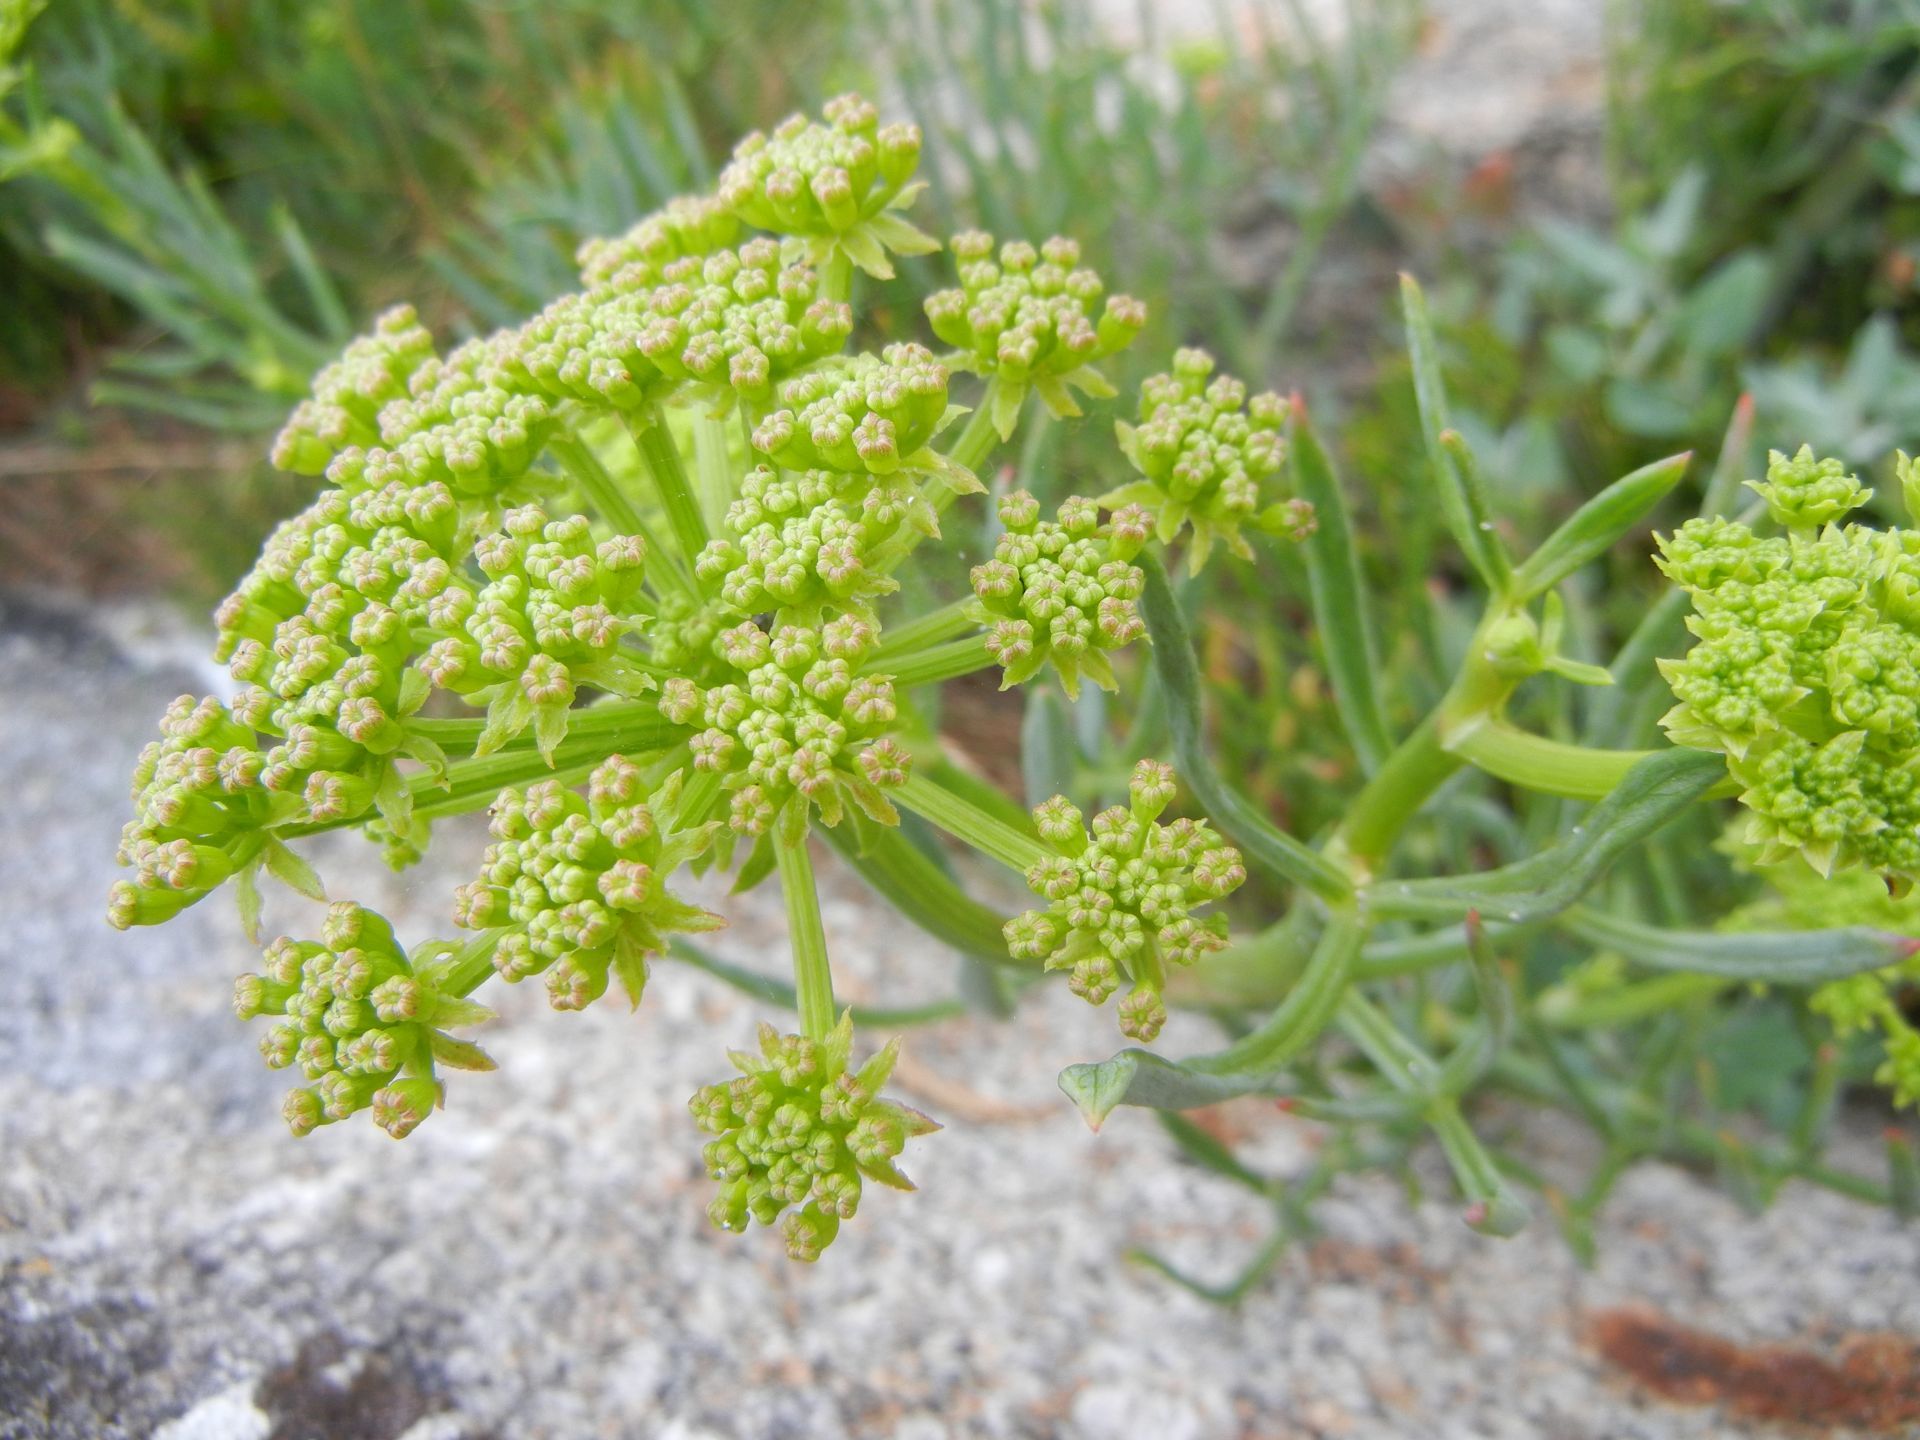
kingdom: Plantae
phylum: Tracheophyta
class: Magnoliopsida
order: Apiales
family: Apiaceae
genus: Crithmum
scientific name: Crithmum maritimum
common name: Rock samphire
